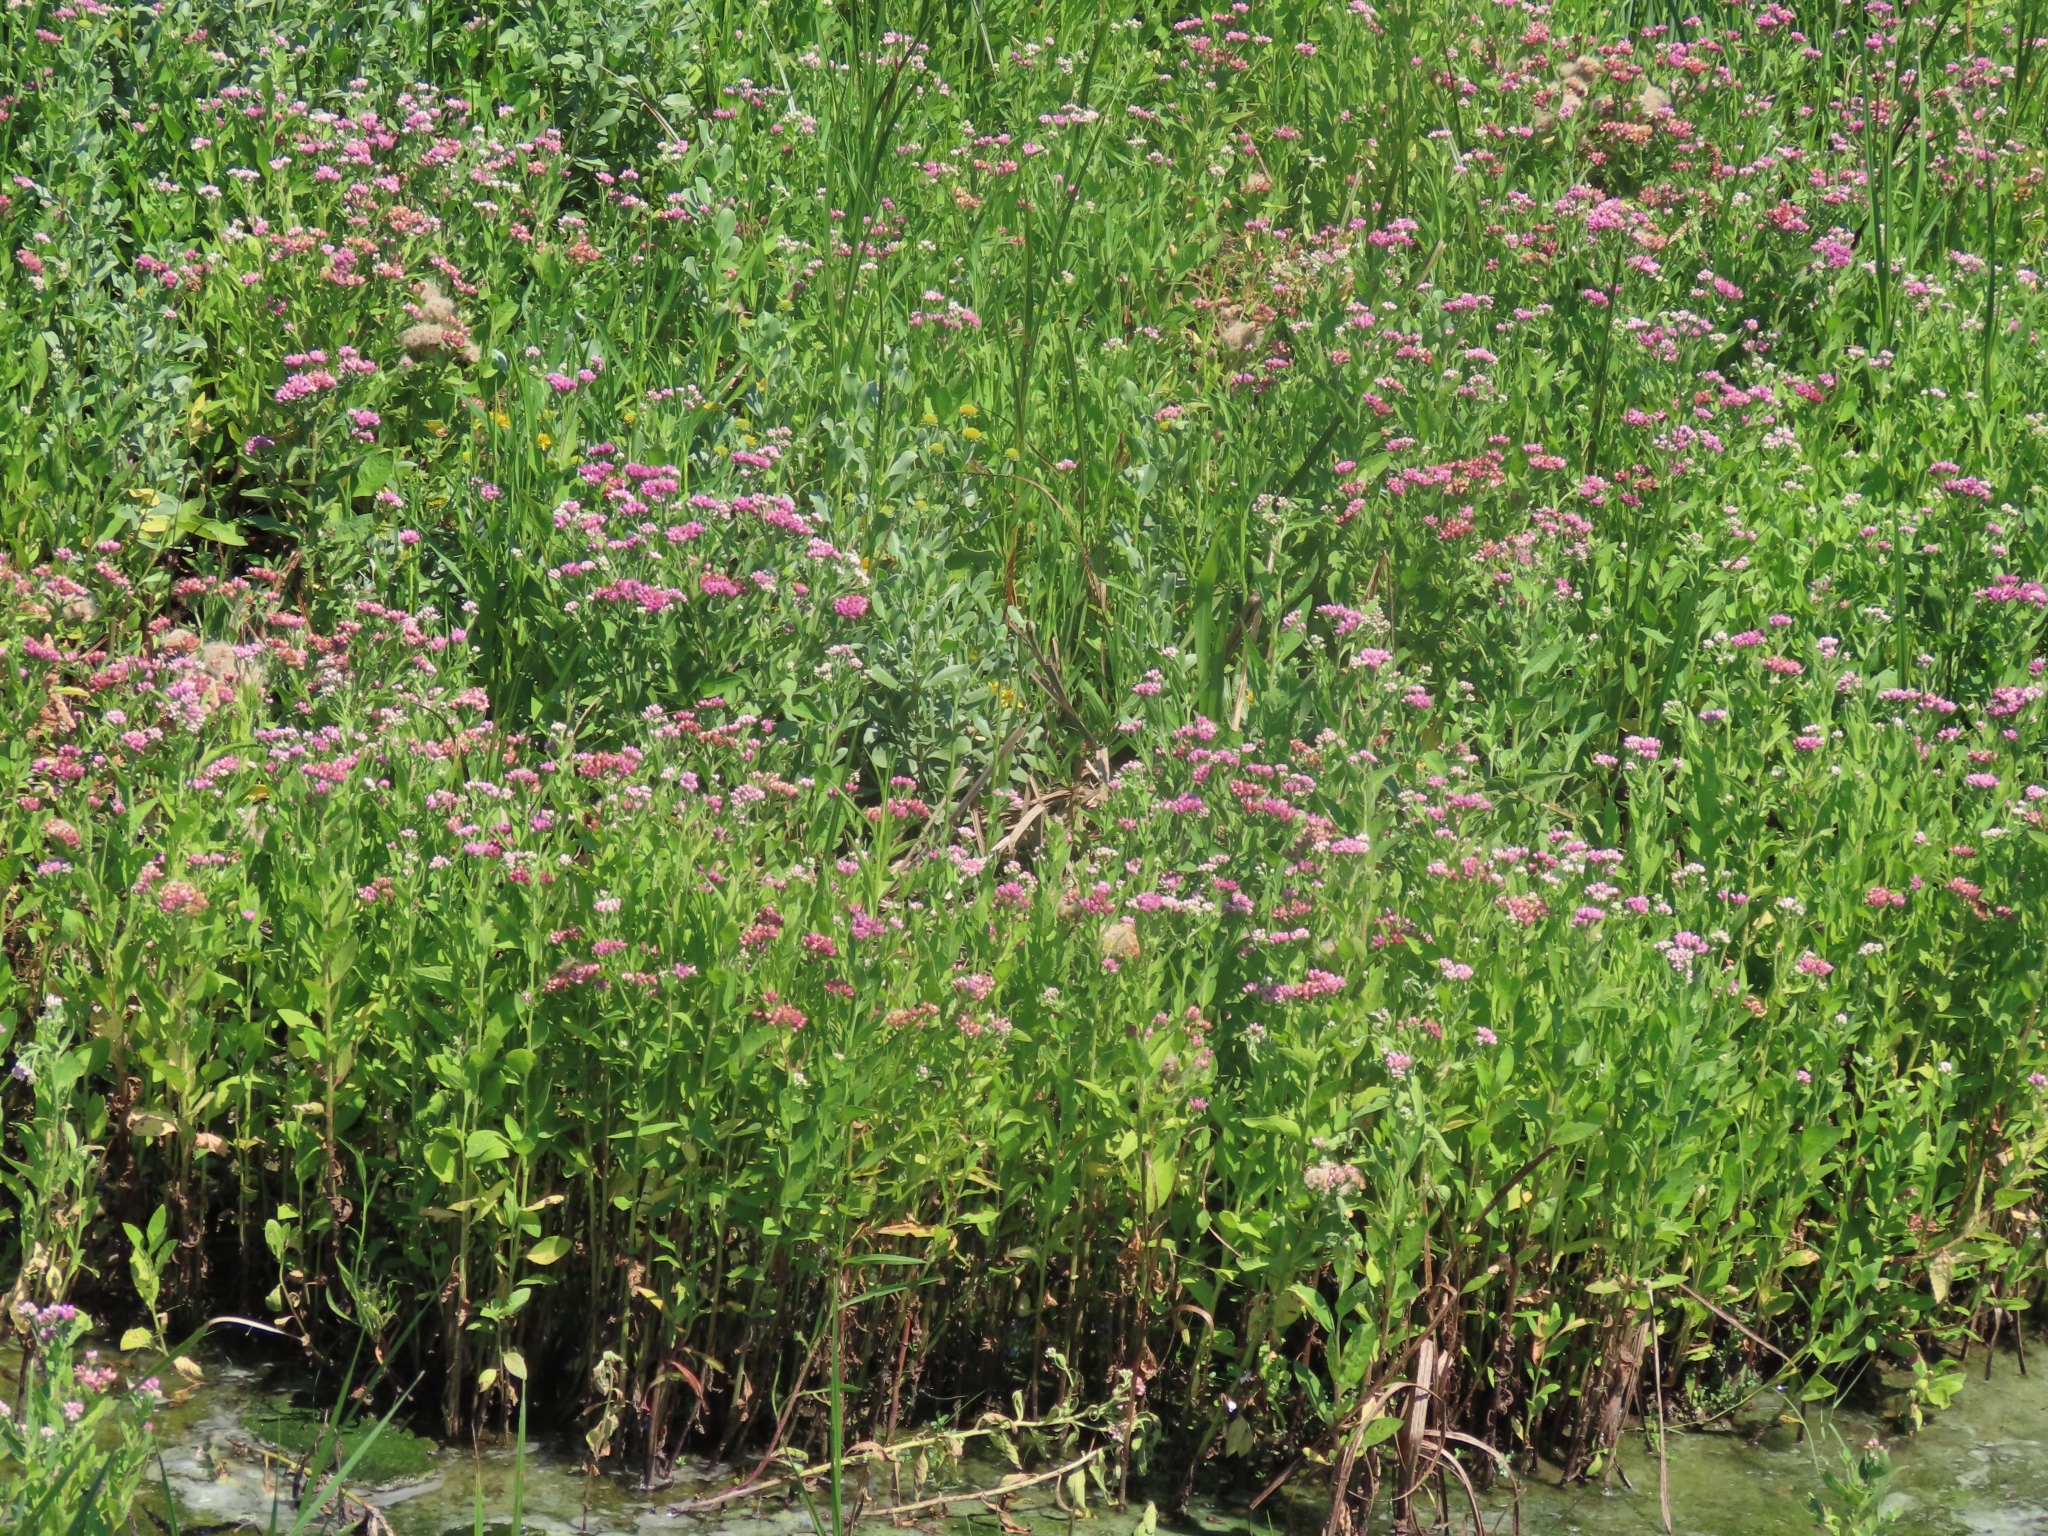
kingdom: Plantae
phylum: Tracheophyta
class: Magnoliopsida
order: Asterales
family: Asteraceae
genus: Pluchea
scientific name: Pluchea odorata
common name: Saltmarsh fleabane
